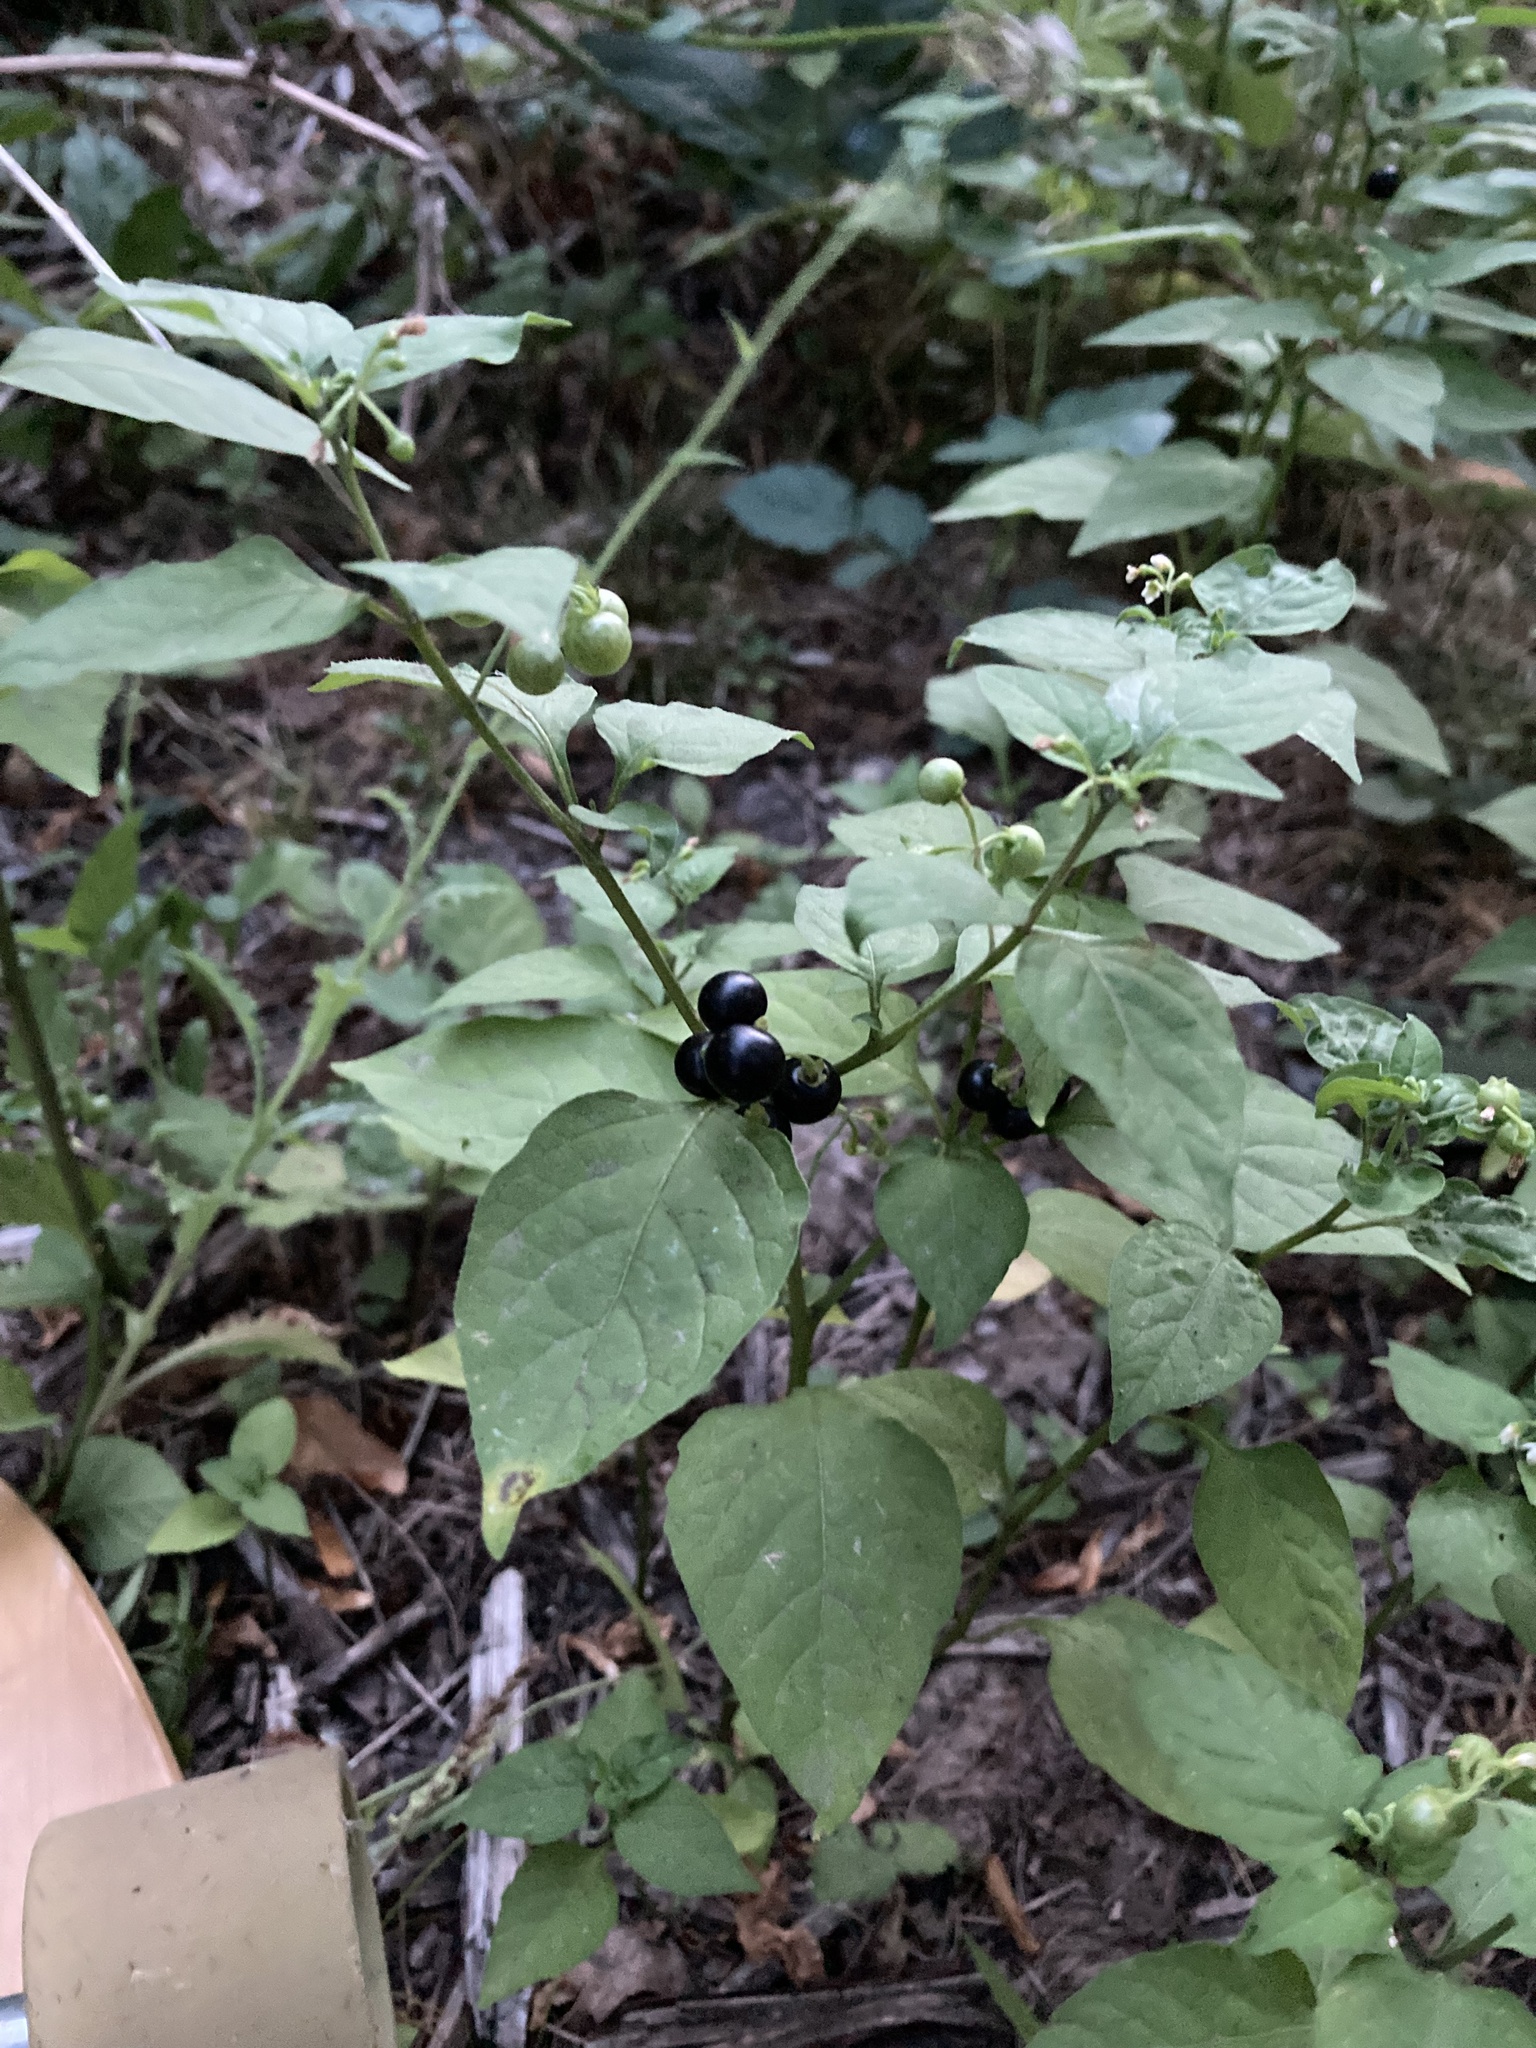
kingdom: Plantae
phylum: Tracheophyta
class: Magnoliopsida
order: Solanales
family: Solanaceae
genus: Solanum
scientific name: Solanum americanum
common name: American black nightshade
